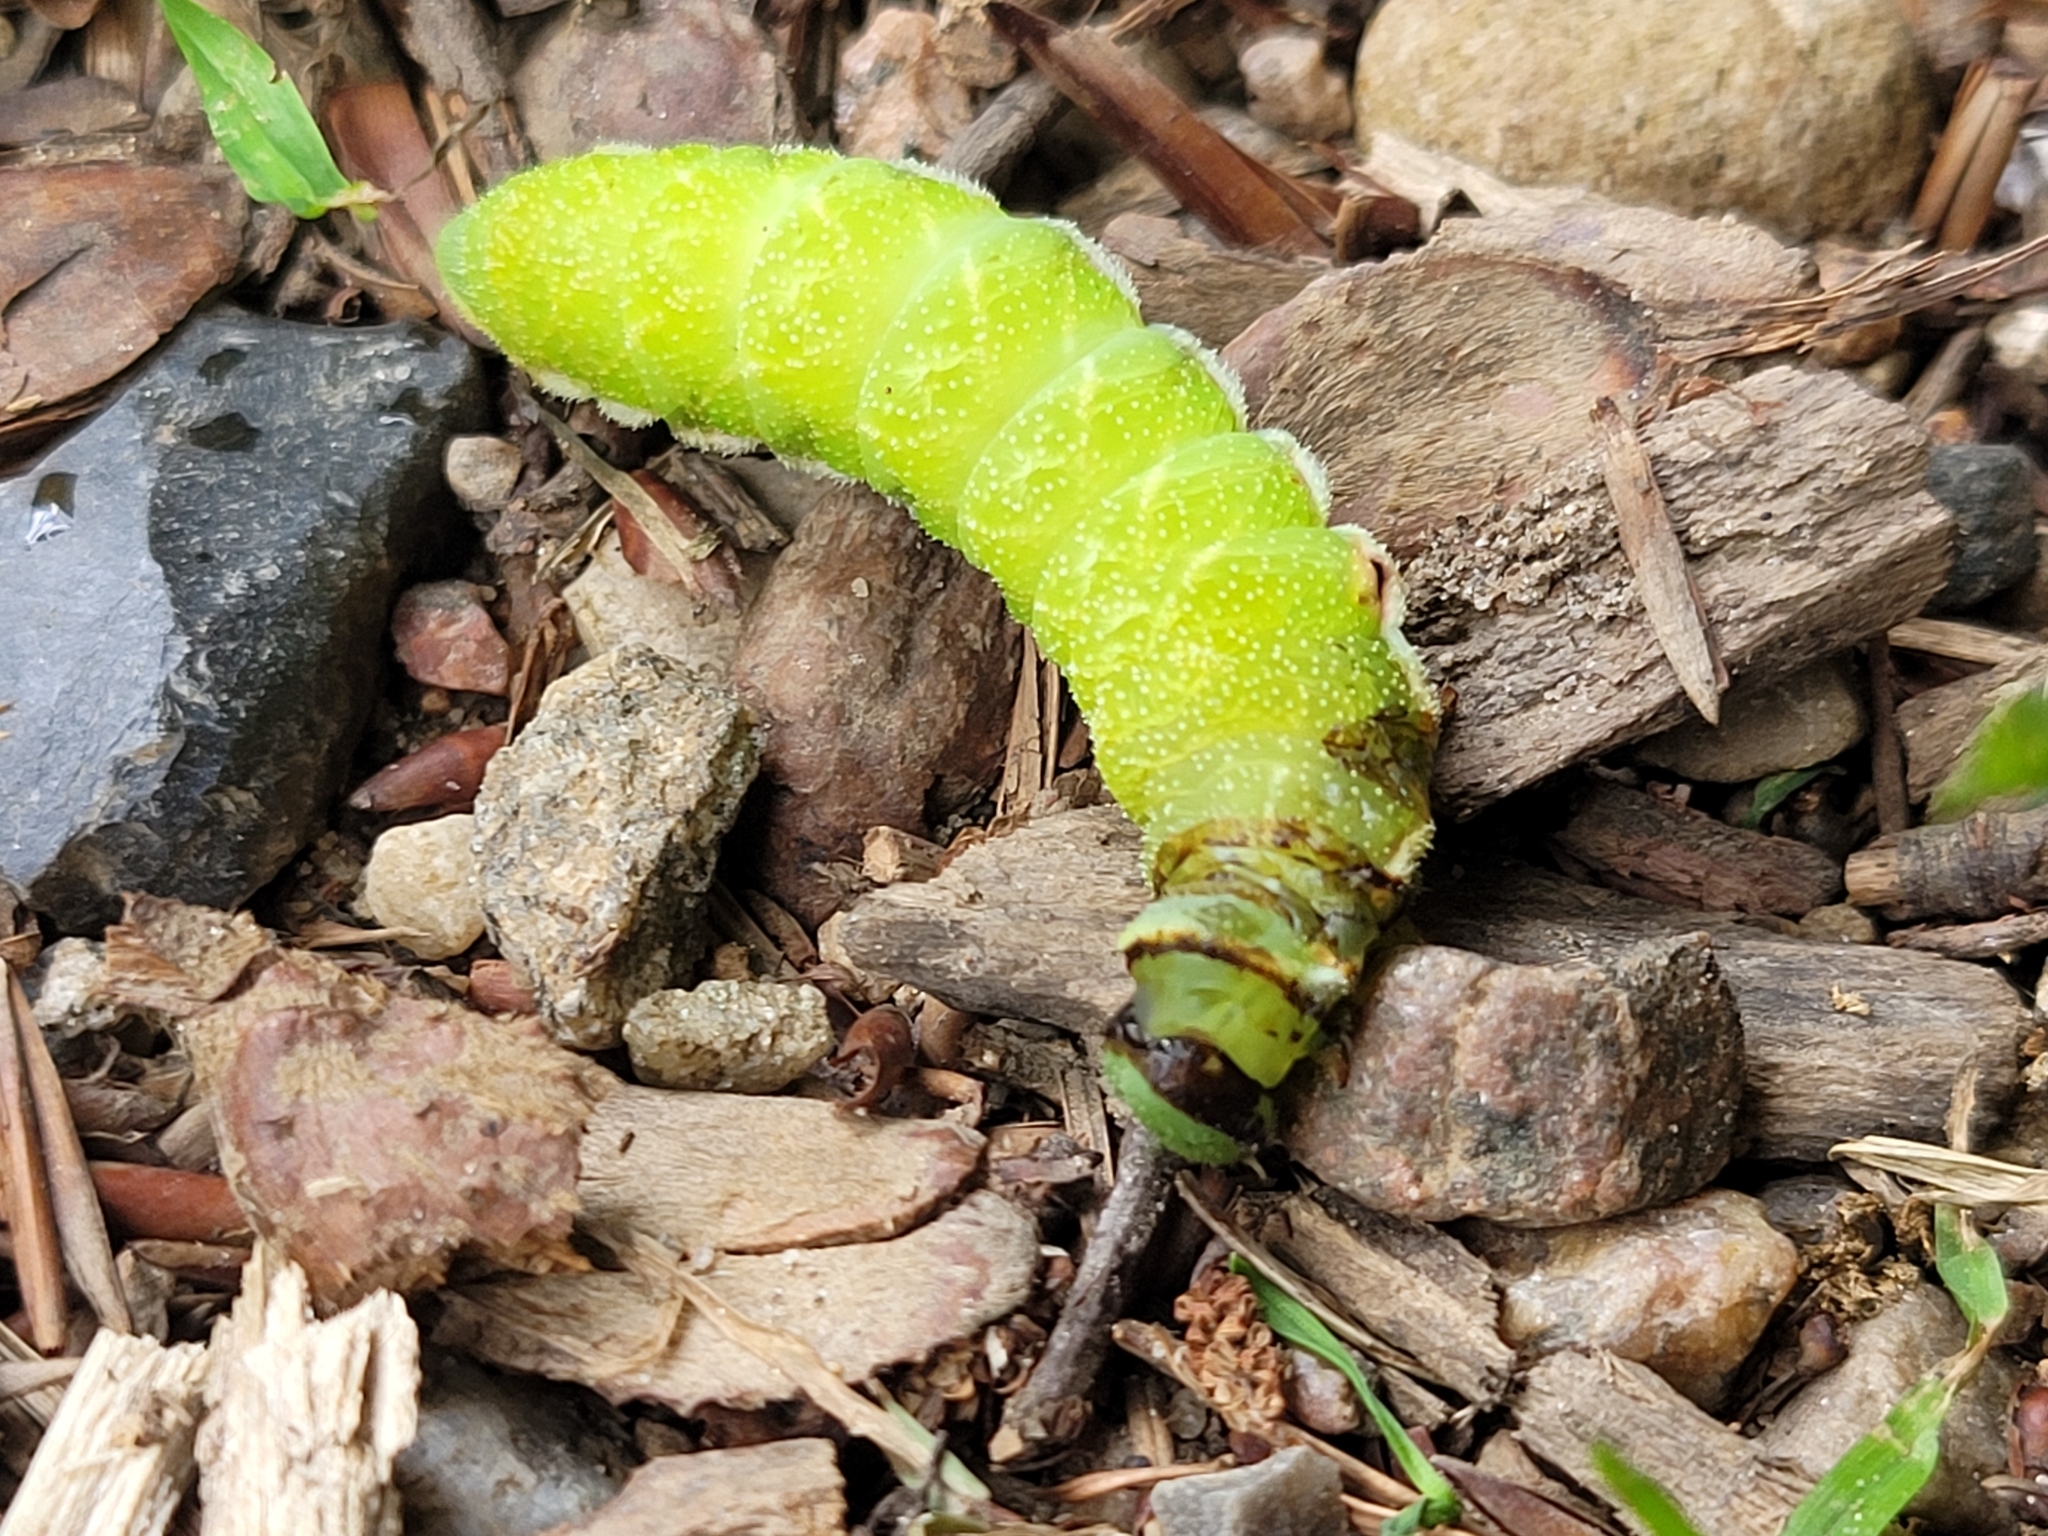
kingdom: Animalia
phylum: Arthropoda
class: Insecta
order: Lepidoptera
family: Saturniidae
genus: Aglia
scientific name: Aglia tau
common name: Tau emperor
